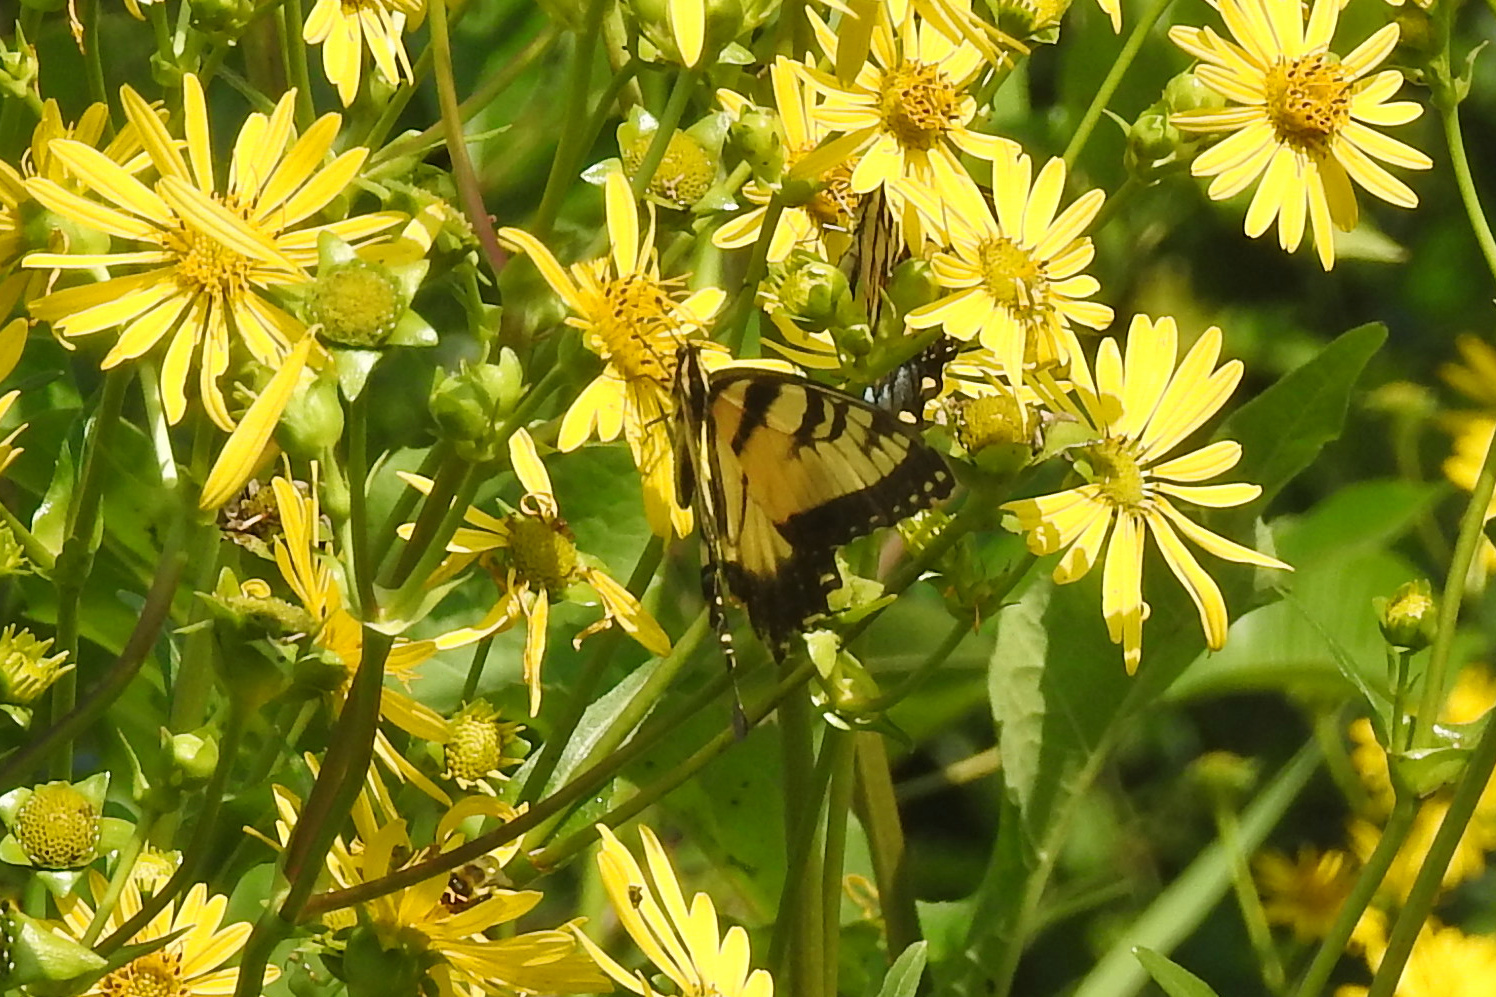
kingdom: Animalia
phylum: Arthropoda
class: Insecta
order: Lepidoptera
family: Papilionidae
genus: Papilio
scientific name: Papilio glaucus
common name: Tiger swallowtail
